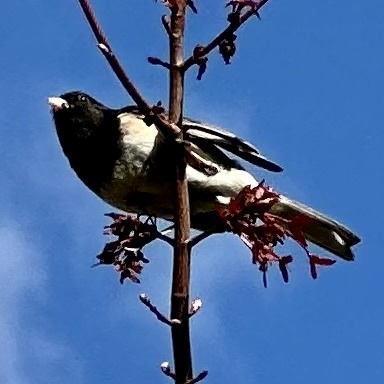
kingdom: Animalia
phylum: Chordata
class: Aves
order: Passeriformes
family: Passerellidae
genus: Junco
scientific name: Junco hyemalis
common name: Dark-eyed junco
